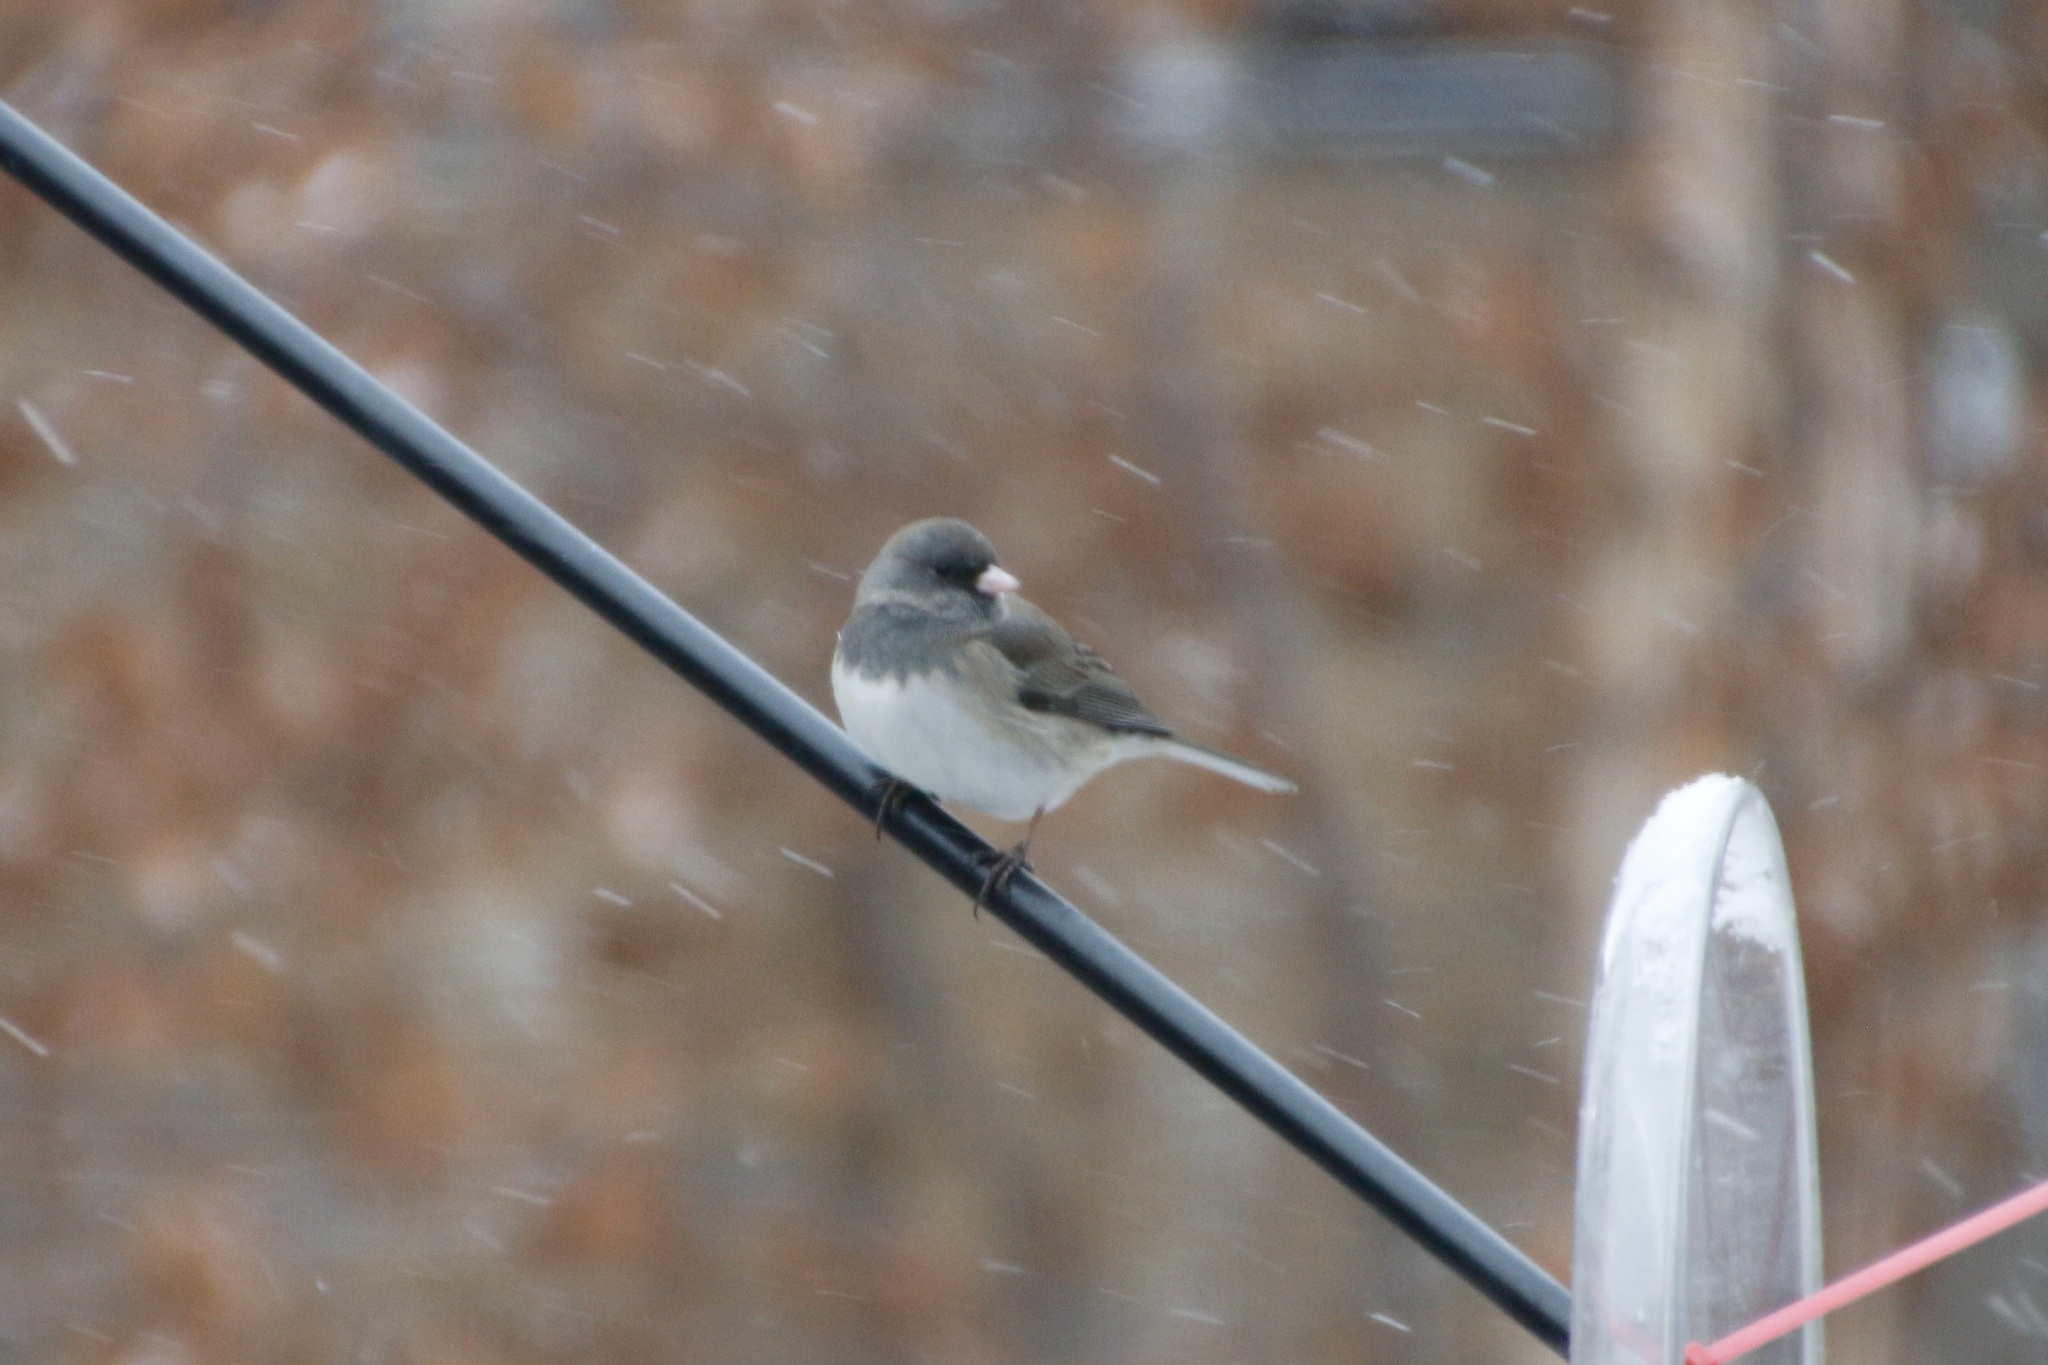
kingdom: Animalia
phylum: Chordata
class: Aves
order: Passeriformes
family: Passerellidae
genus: Junco
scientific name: Junco hyemalis
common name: Dark-eyed junco
